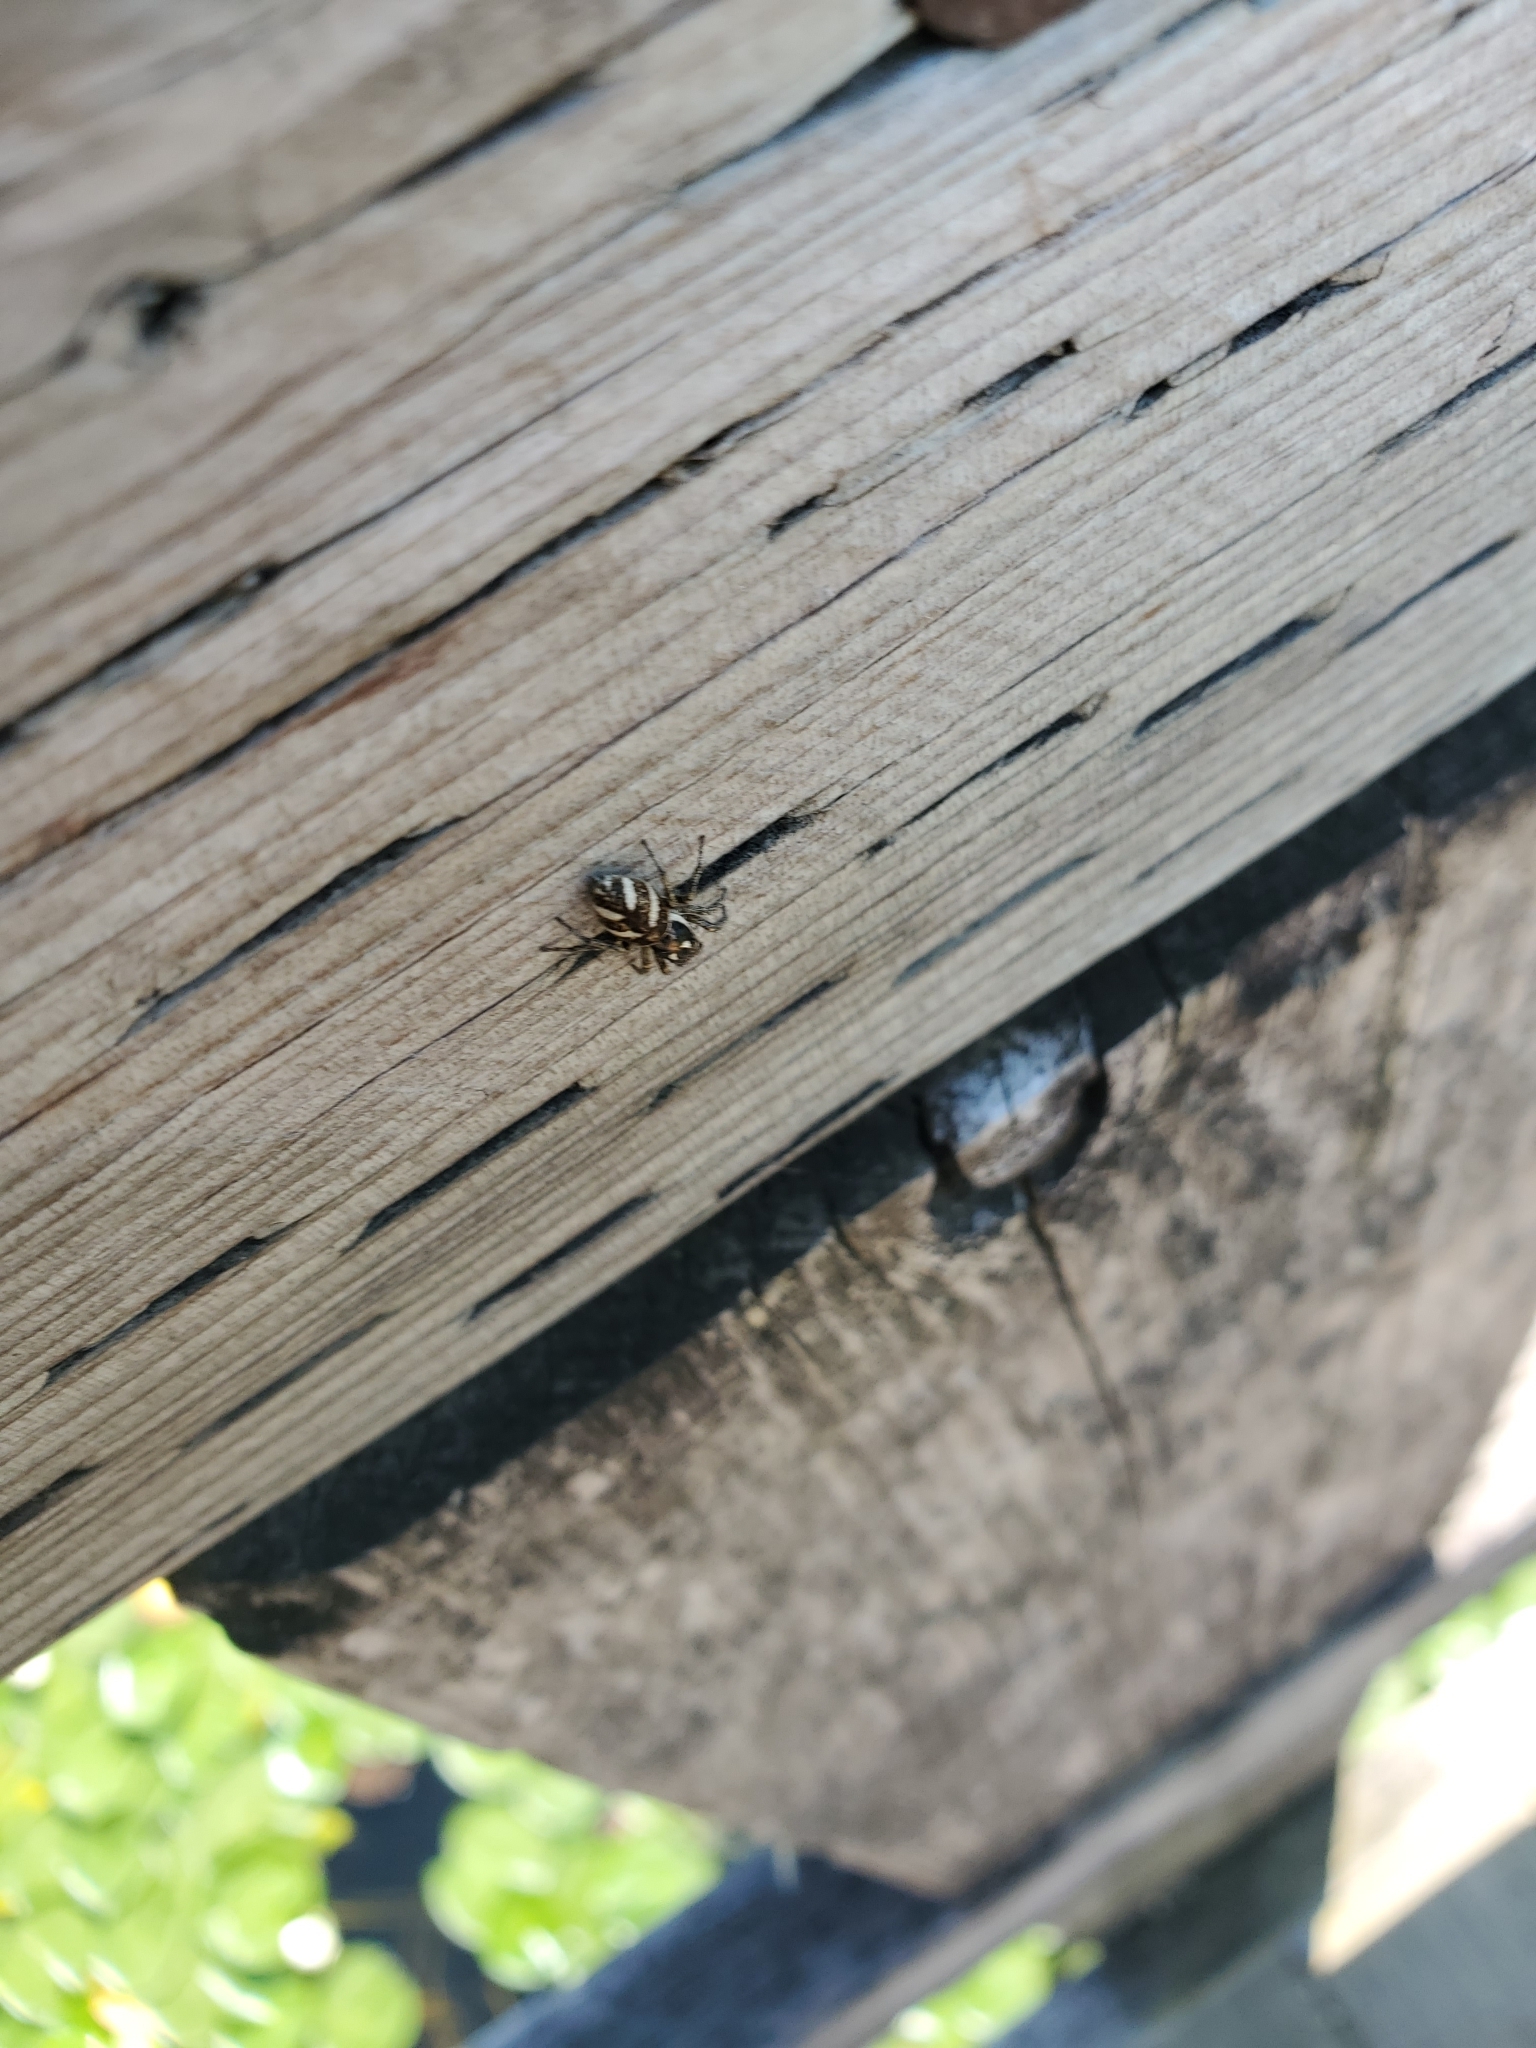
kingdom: Animalia
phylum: Arthropoda
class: Arachnida
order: Araneae
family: Salticidae
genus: Salticus
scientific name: Salticus scenicus
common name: Zebra jumper
